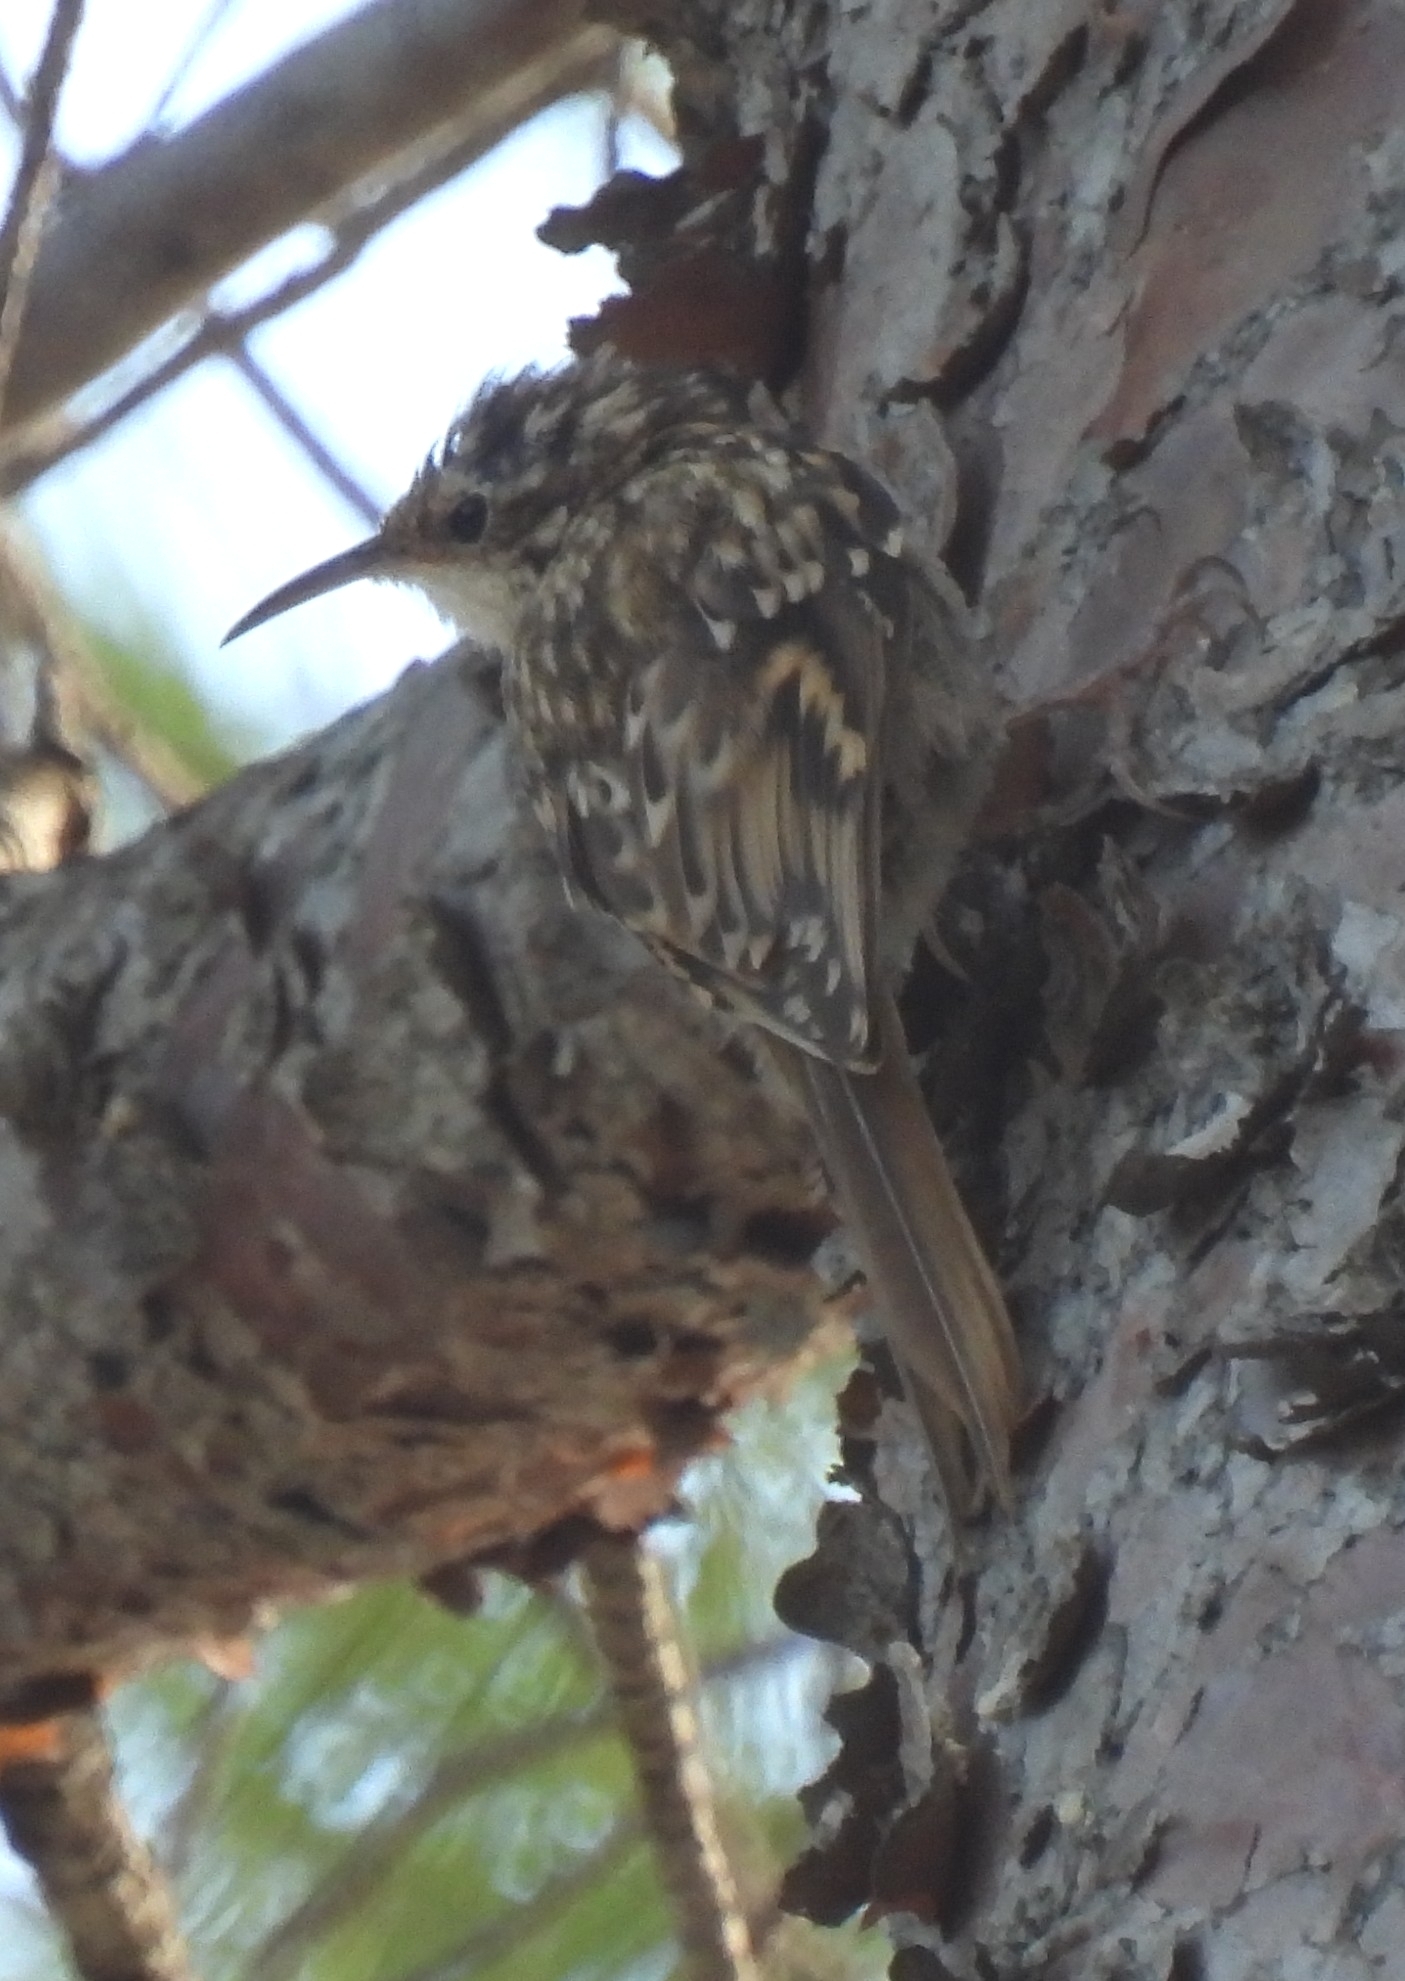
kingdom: Animalia
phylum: Chordata
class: Aves
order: Passeriformes
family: Certhiidae
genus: Certhia
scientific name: Certhia brachydactyla
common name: Short-toed treecreeper
